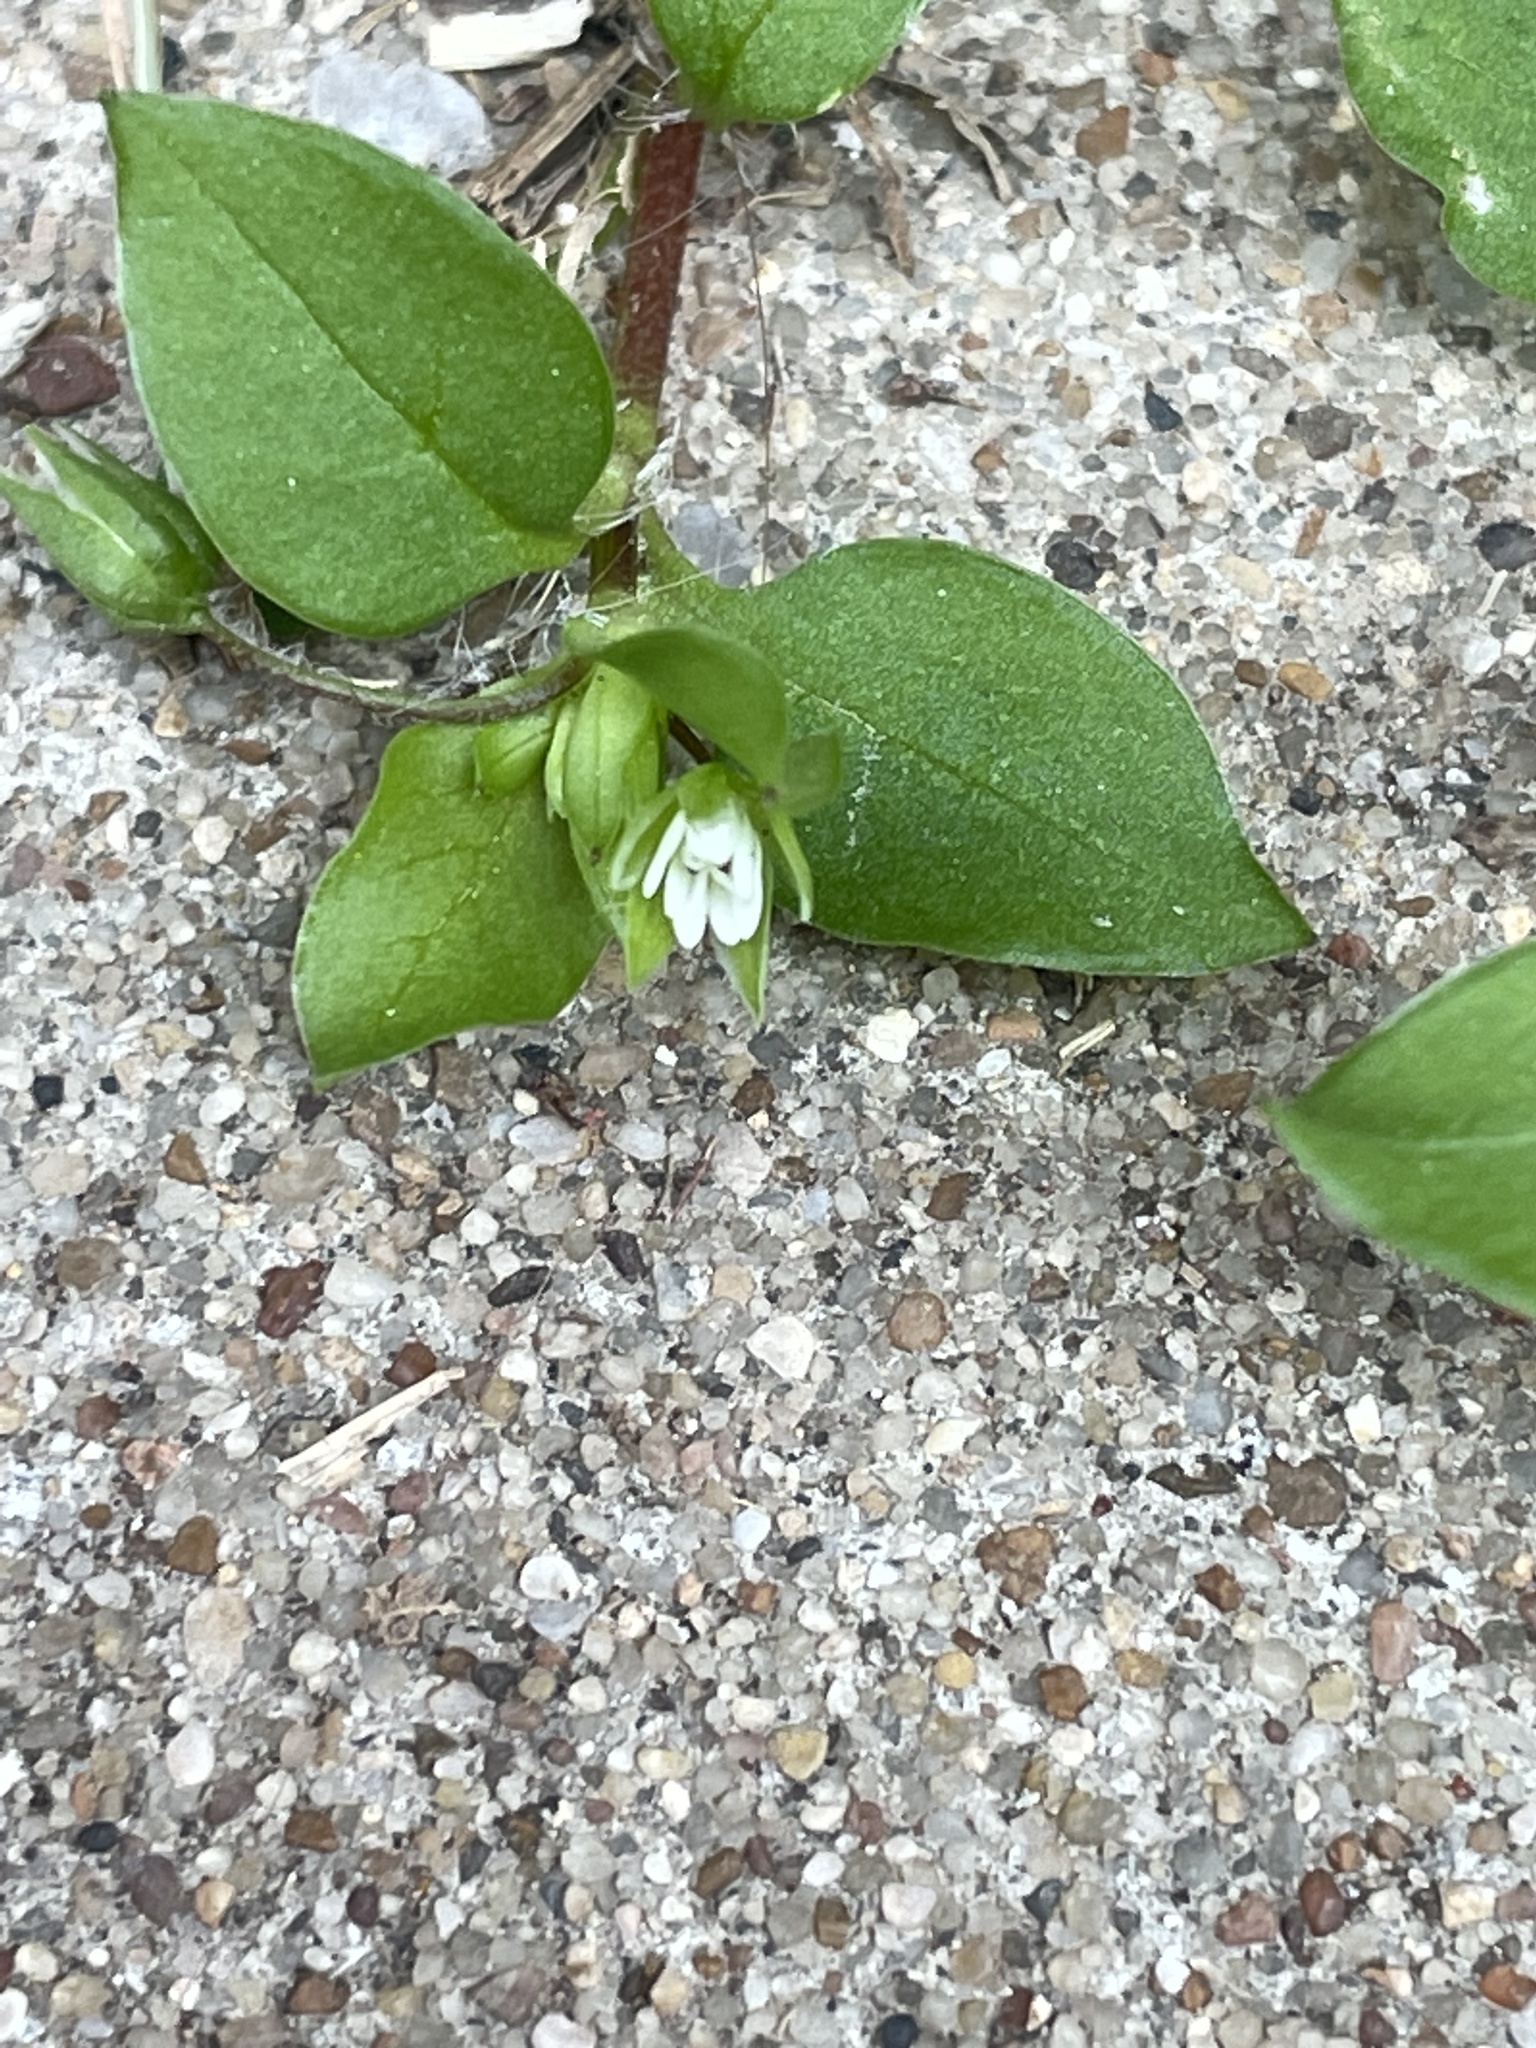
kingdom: Plantae
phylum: Tracheophyta
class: Magnoliopsida
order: Caryophyllales
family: Caryophyllaceae
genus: Stellaria
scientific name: Stellaria media
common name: Common chickweed
